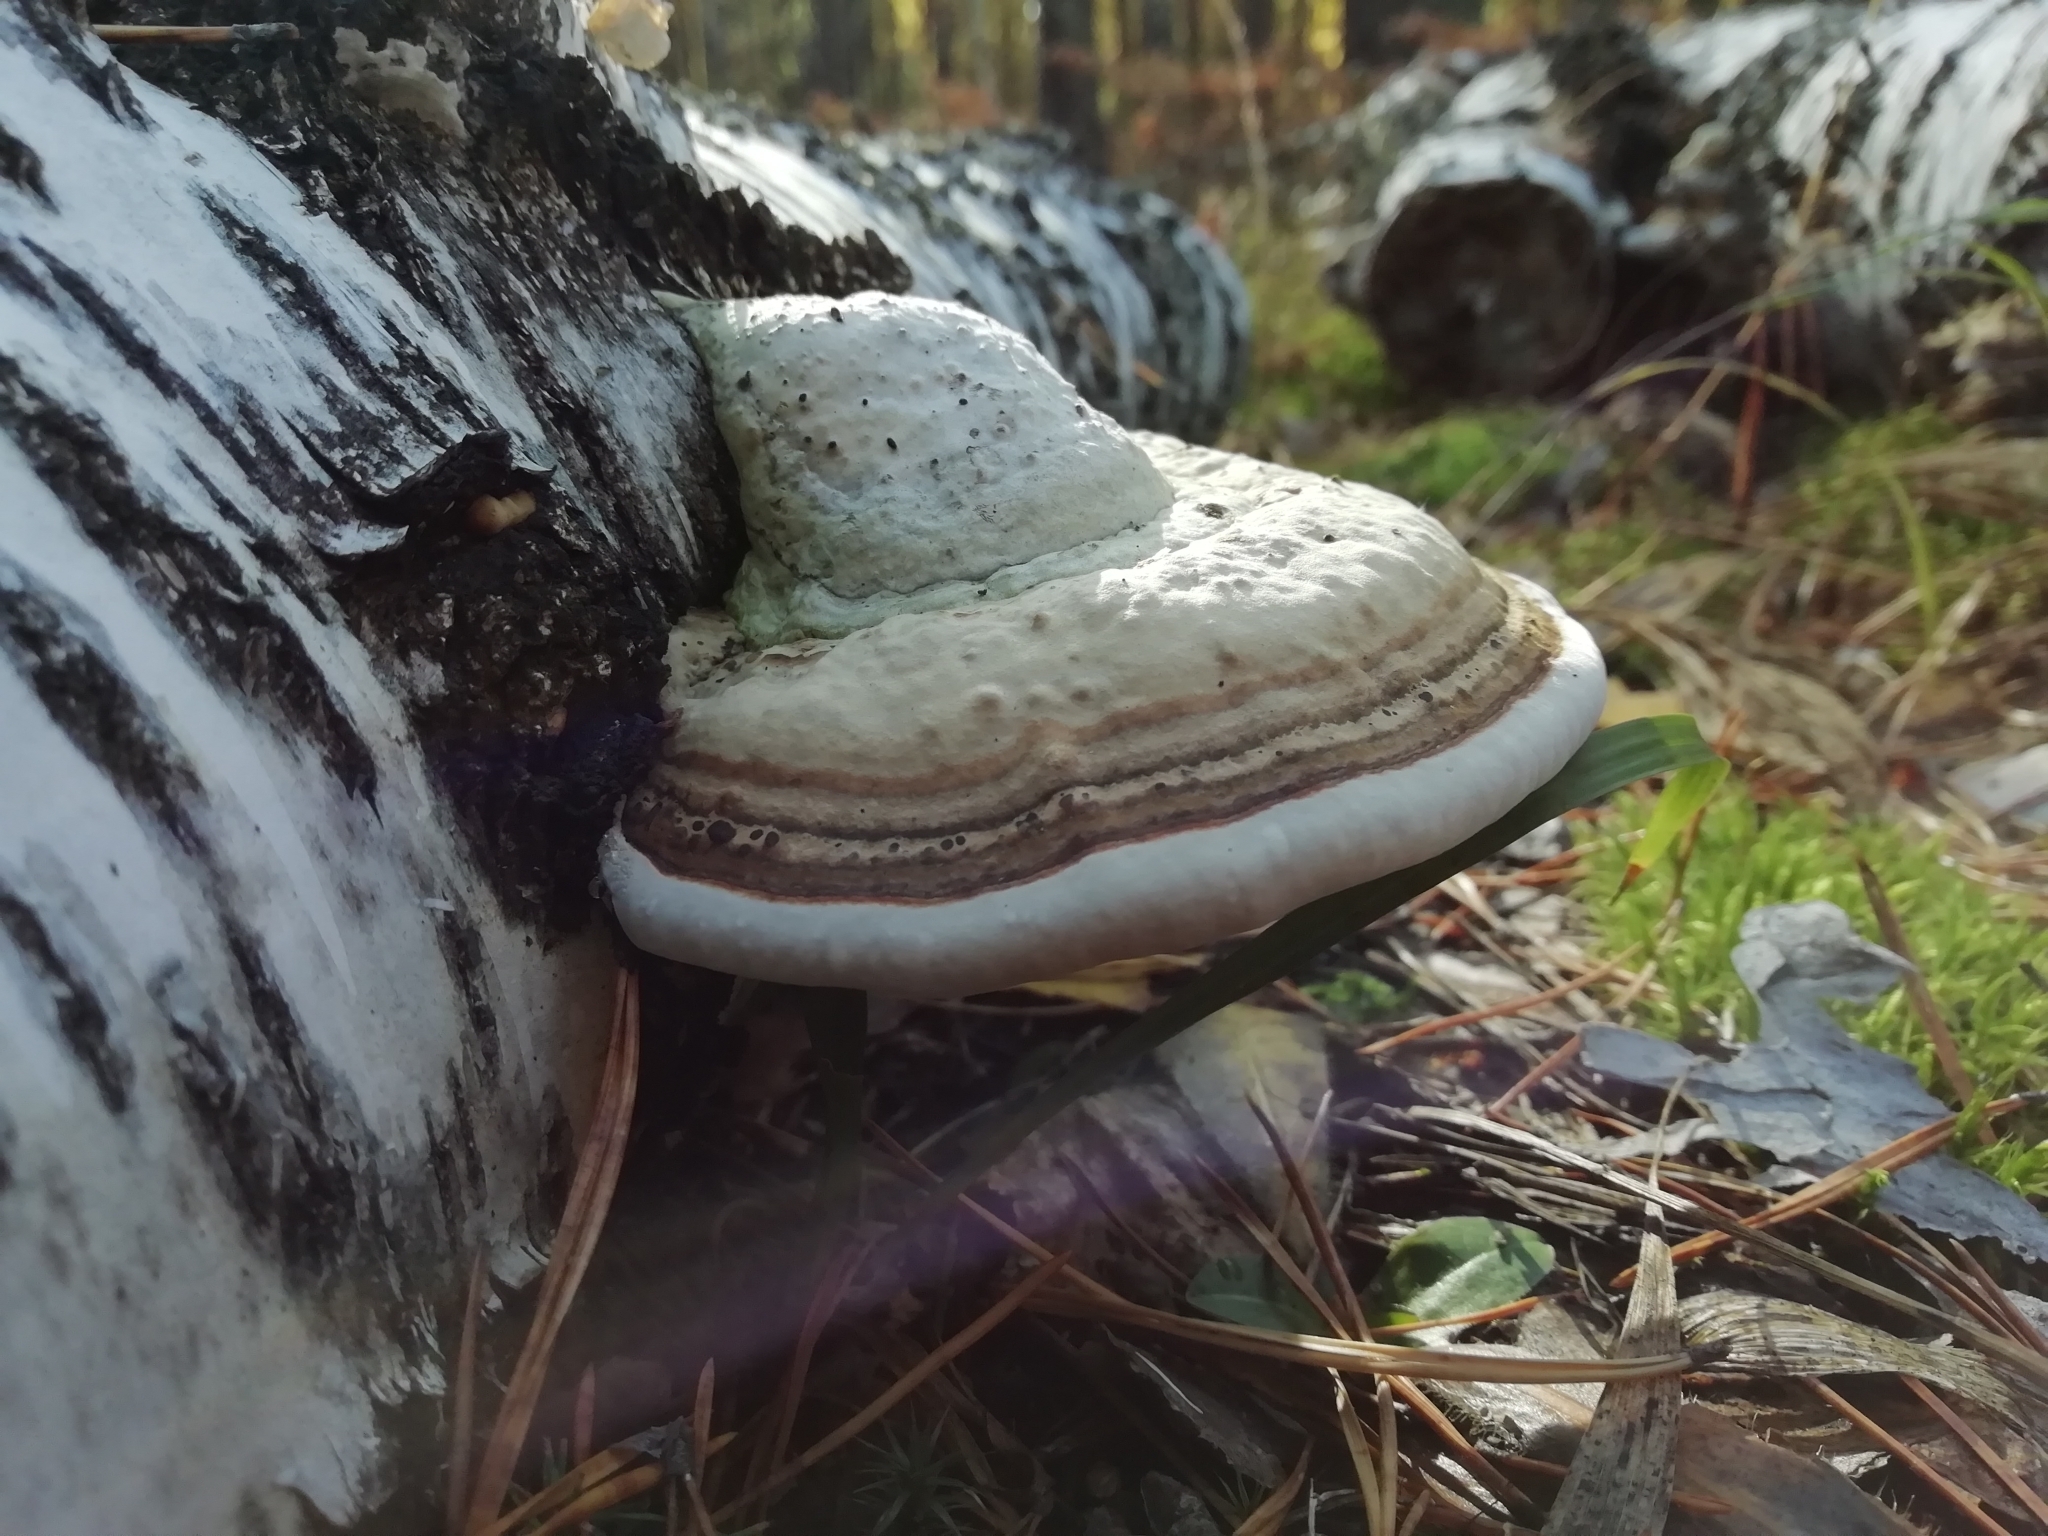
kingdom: Fungi
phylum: Basidiomycota
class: Agaricomycetes
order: Polyporales
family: Polyporaceae
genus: Fomes
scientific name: Fomes fomentarius
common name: Hoof fungus
